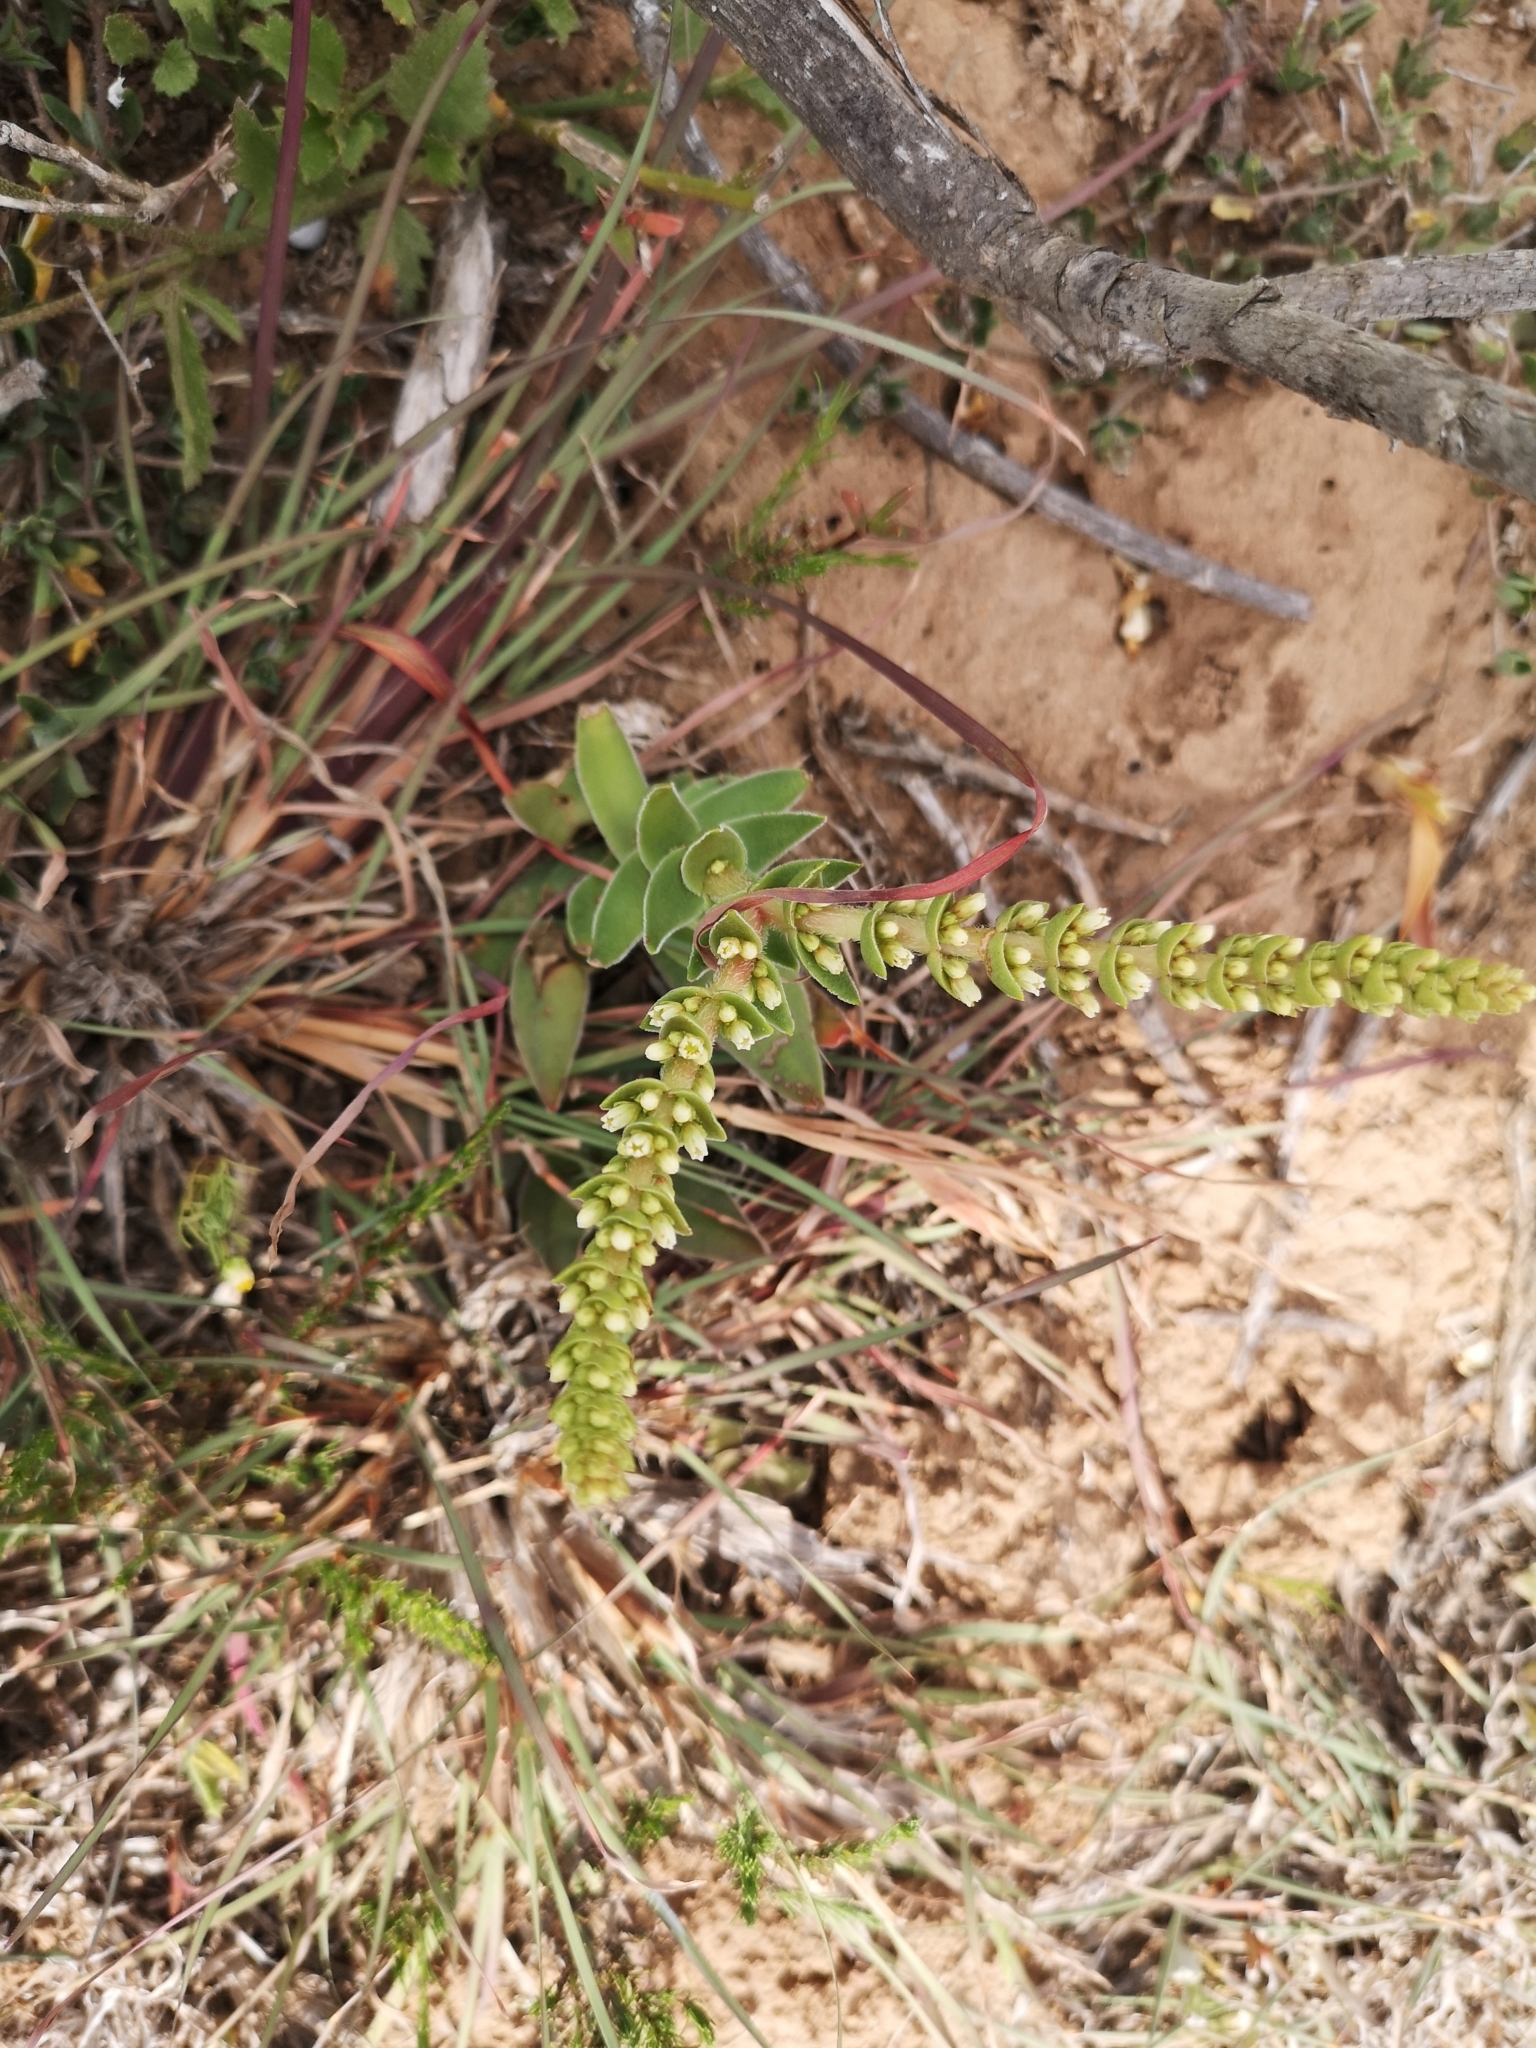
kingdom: Plantae
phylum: Tracheophyta
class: Magnoliopsida
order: Saxifragales
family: Crassulaceae
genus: Crassula
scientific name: Crassula capitella
